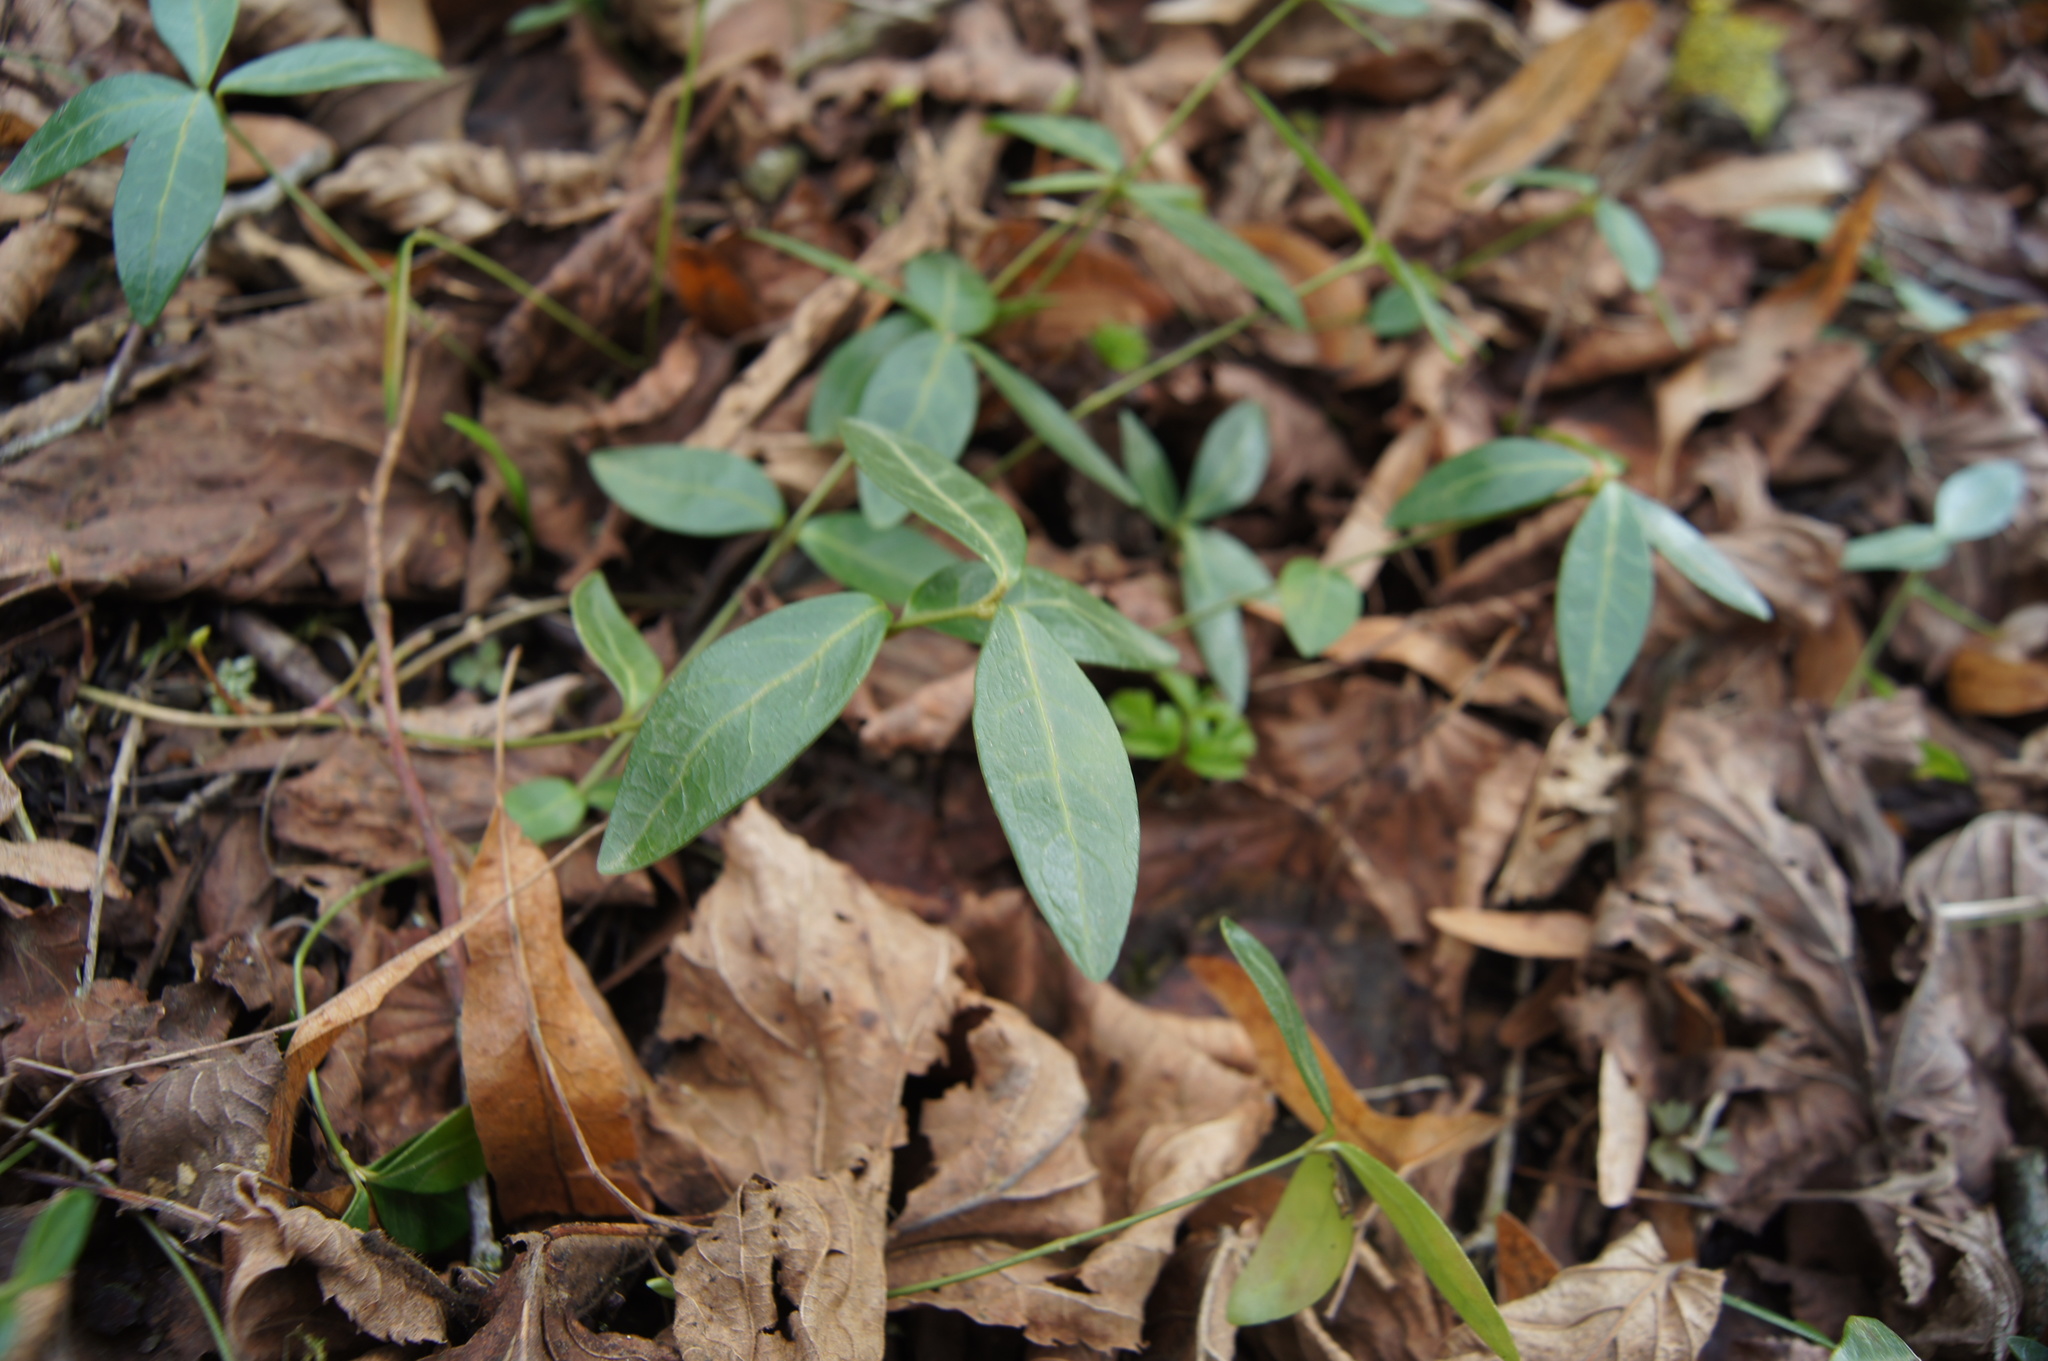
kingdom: Plantae
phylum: Tracheophyta
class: Magnoliopsida
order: Gentianales
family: Apocynaceae
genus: Vinca
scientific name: Vinca minor
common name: Lesser periwinkle
